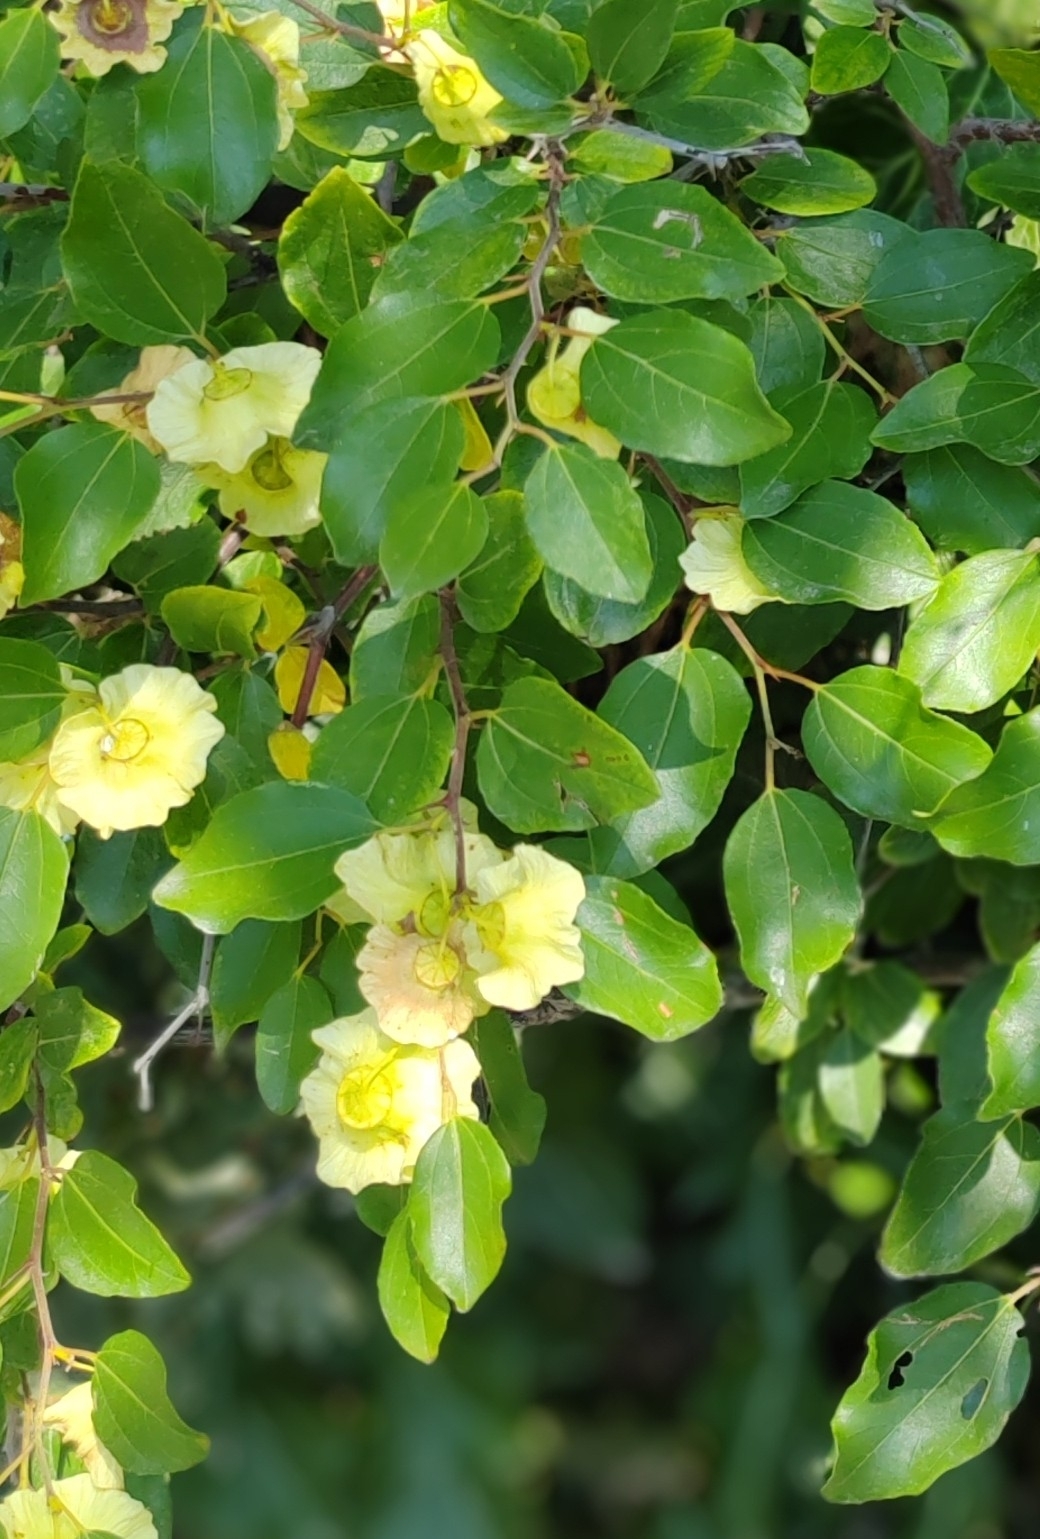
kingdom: Plantae
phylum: Tracheophyta
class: Magnoliopsida
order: Rosales
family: Rhamnaceae
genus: Paliurus
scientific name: Paliurus spina-christi
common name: Jeruselem thorn
